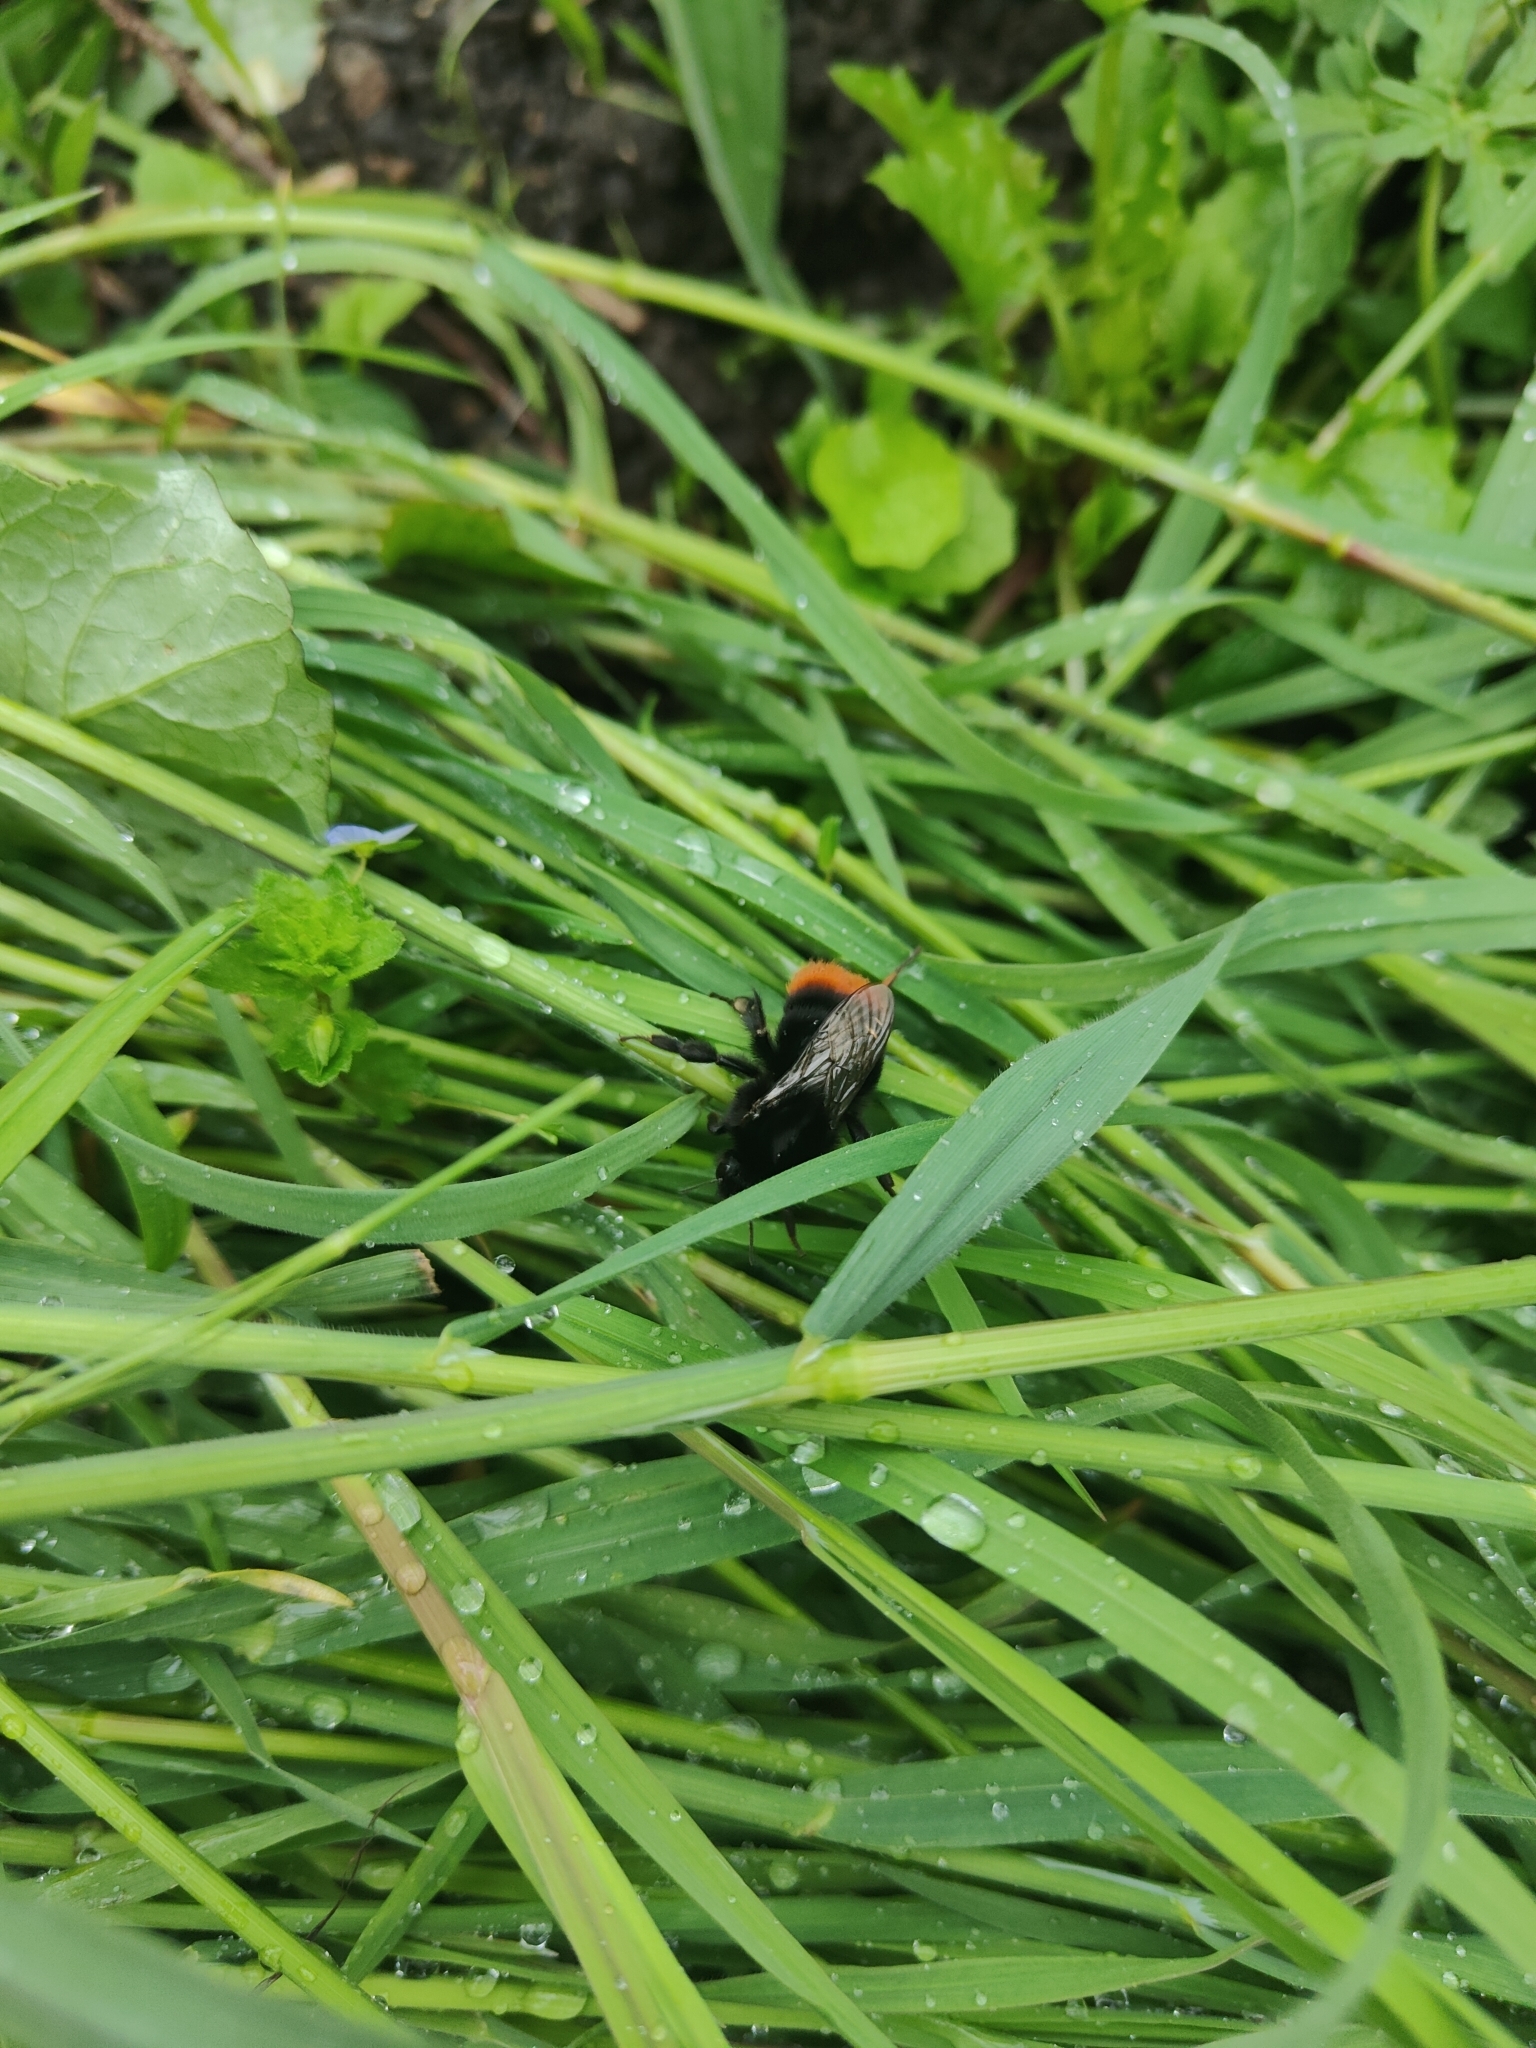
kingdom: Animalia
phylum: Arthropoda
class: Insecta
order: Hymenoptera
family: Apidae
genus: Bombus
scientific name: Bombus lapidarius
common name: Large red-tailed humble-bee
